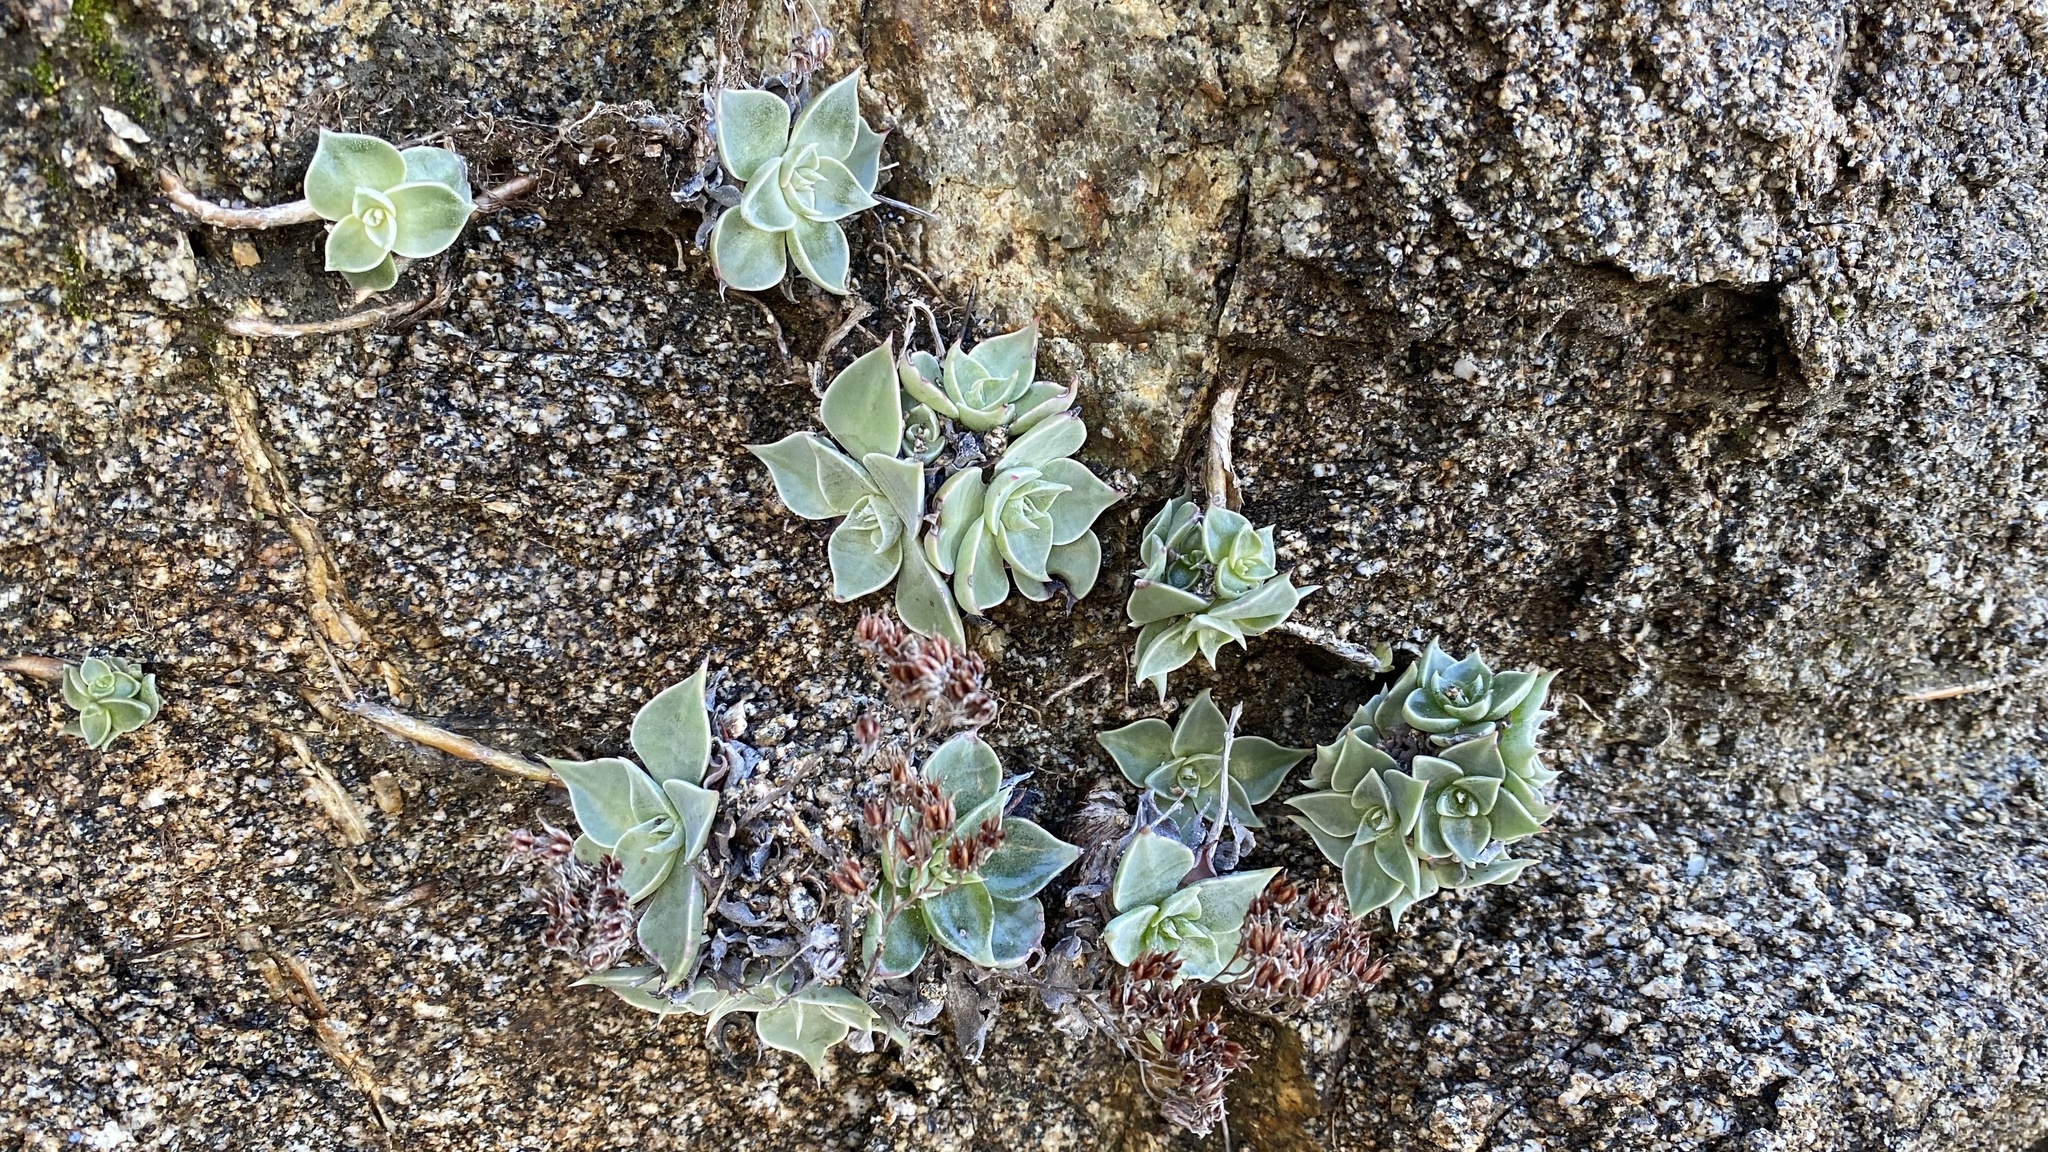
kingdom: Plantae
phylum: Tracheophyta
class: Magnoliopsida
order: Saxifragales
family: Crassulaceae
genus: Dudleya
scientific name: Dudleya cymosa
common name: Canyon dudleya
